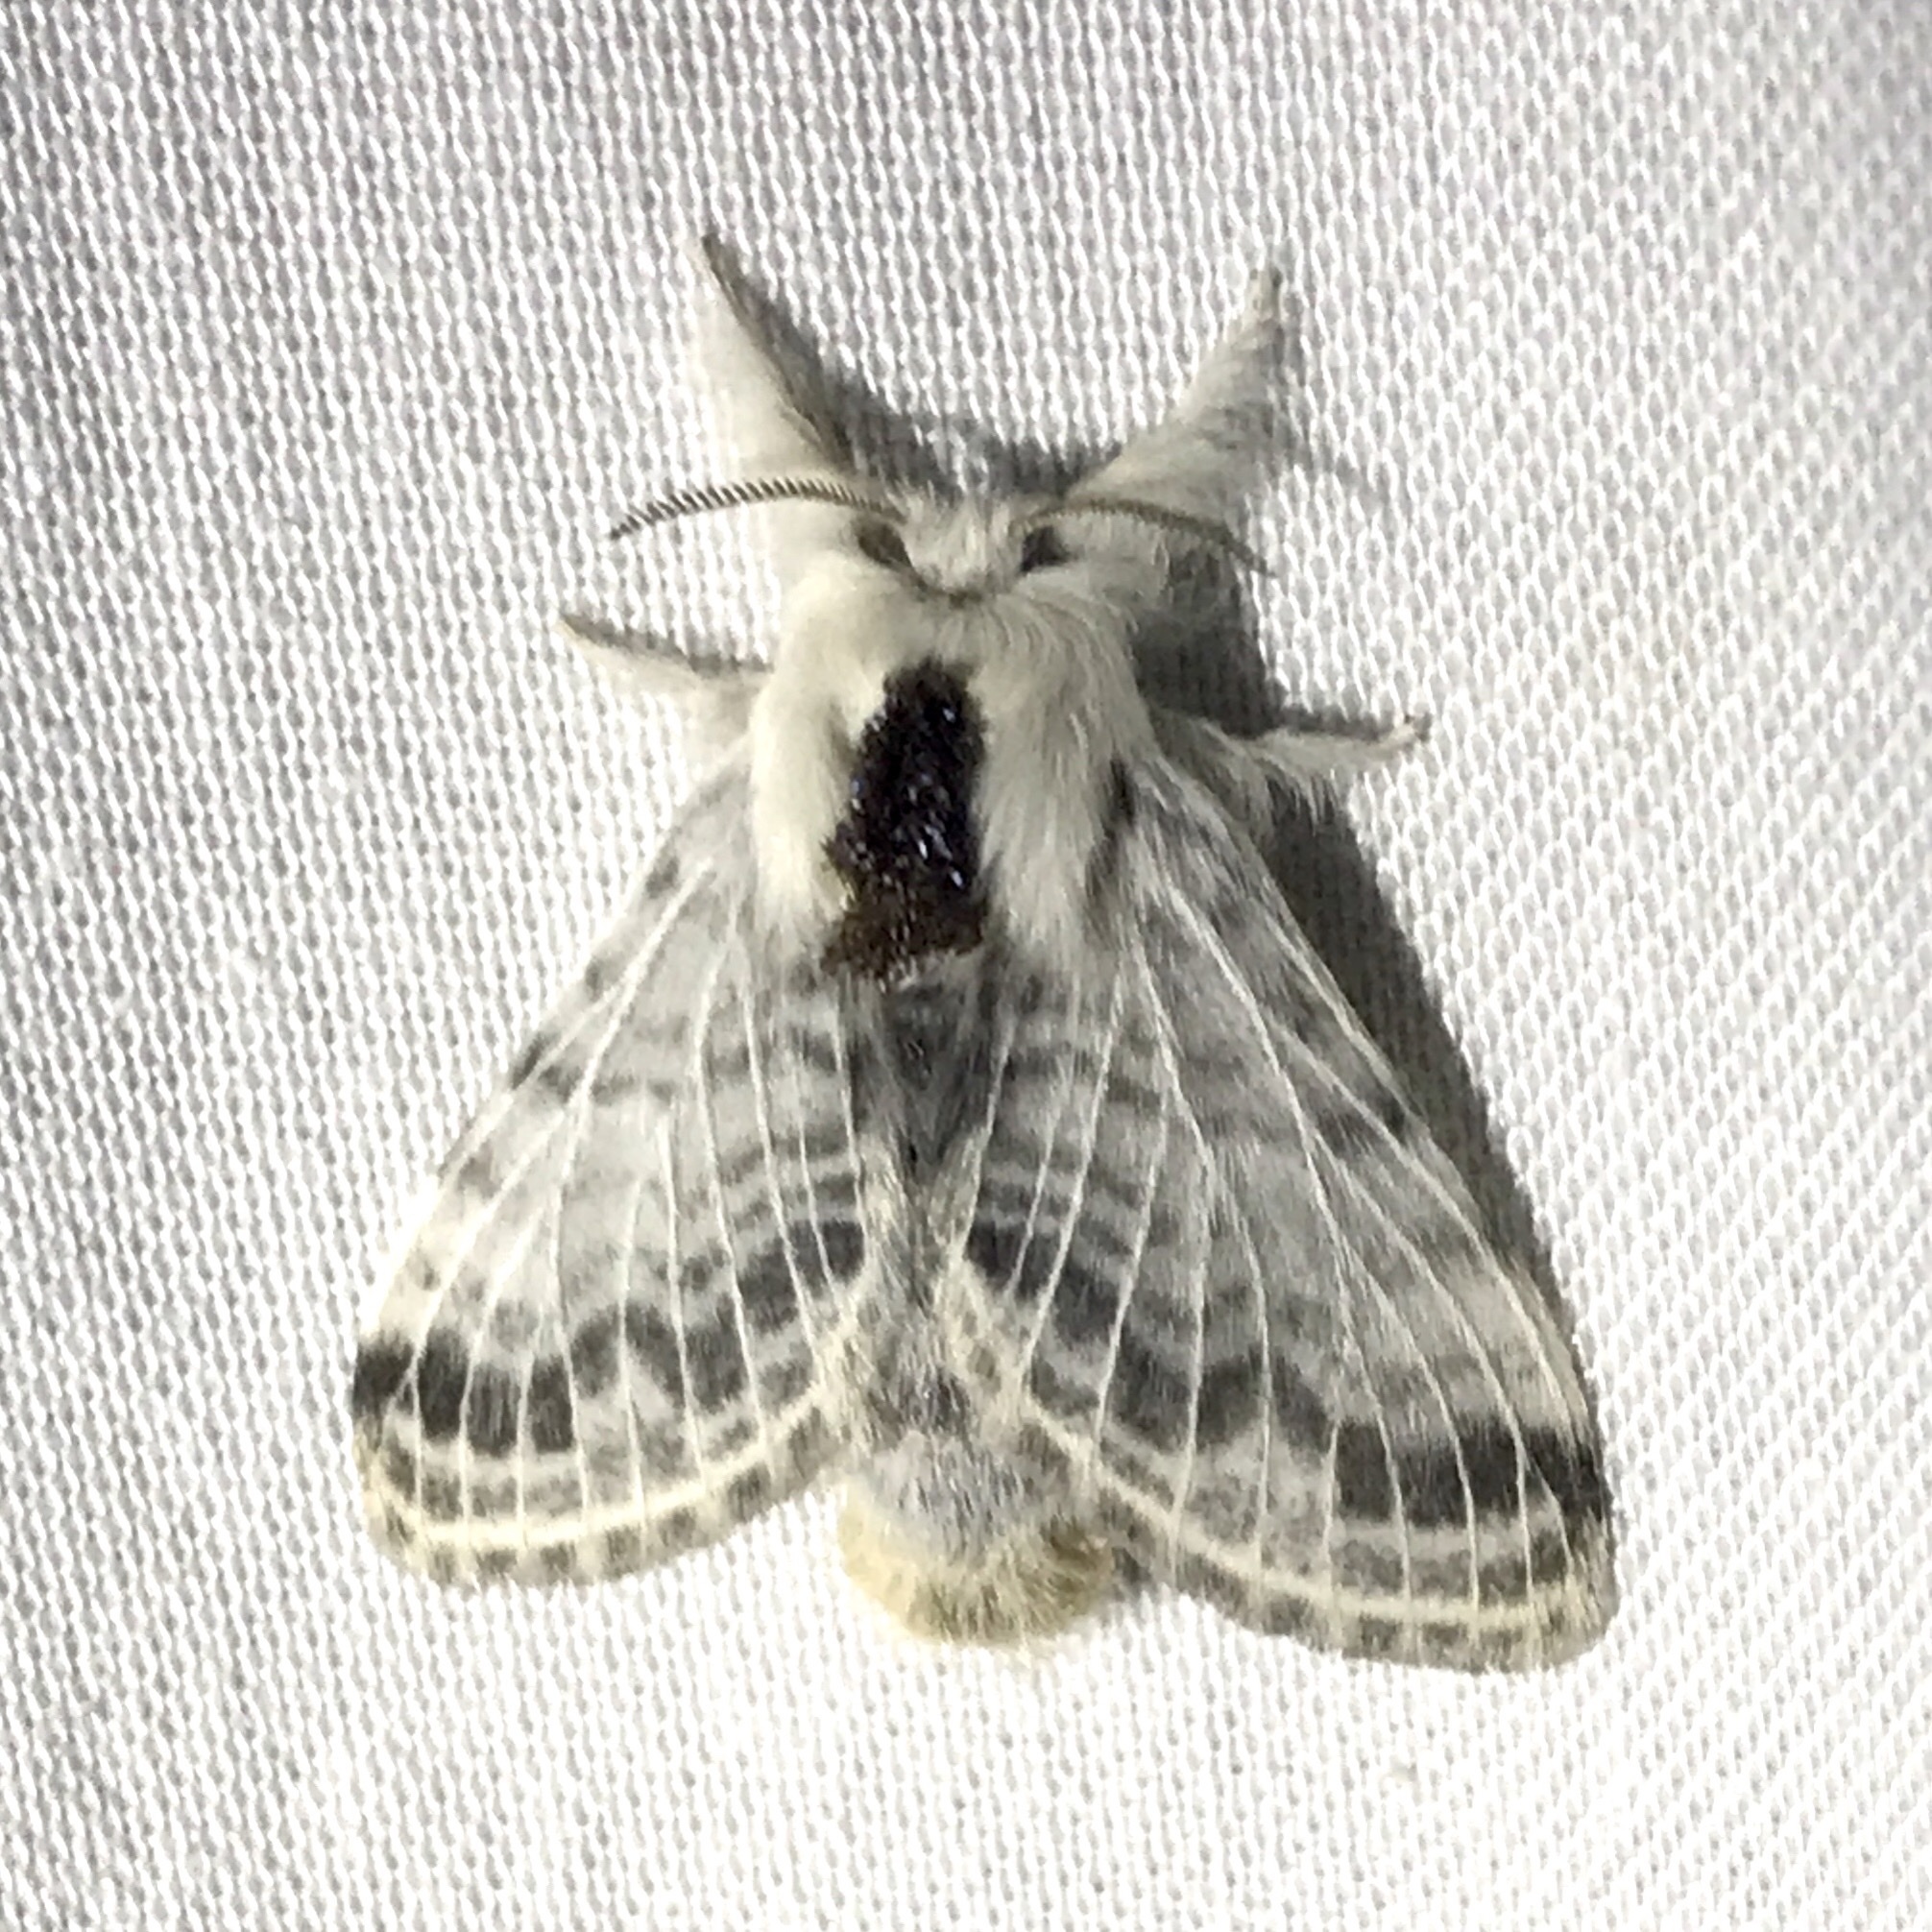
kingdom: Animalia
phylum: Arthropoda
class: Insecta
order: Lepidoptera
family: Lasiocampidae
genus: Tolype
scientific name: Tolype velleda
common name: Large tolype moth
